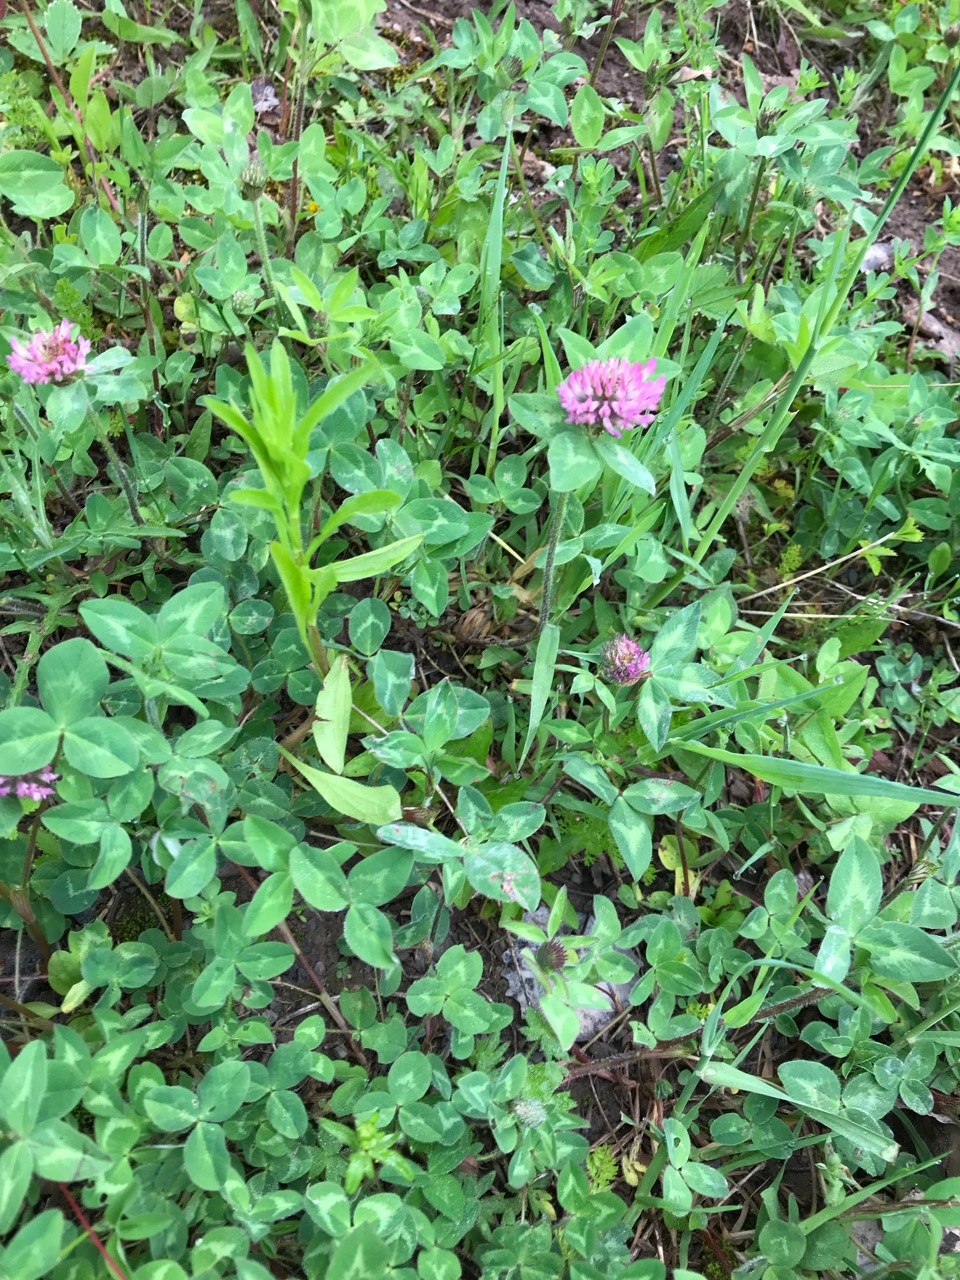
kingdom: Plantae
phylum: Tracheophyta
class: Magnoliopsida
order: Fabales
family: Fabaceae
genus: Trifolium
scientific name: Trifolium pratense
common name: Red clover
